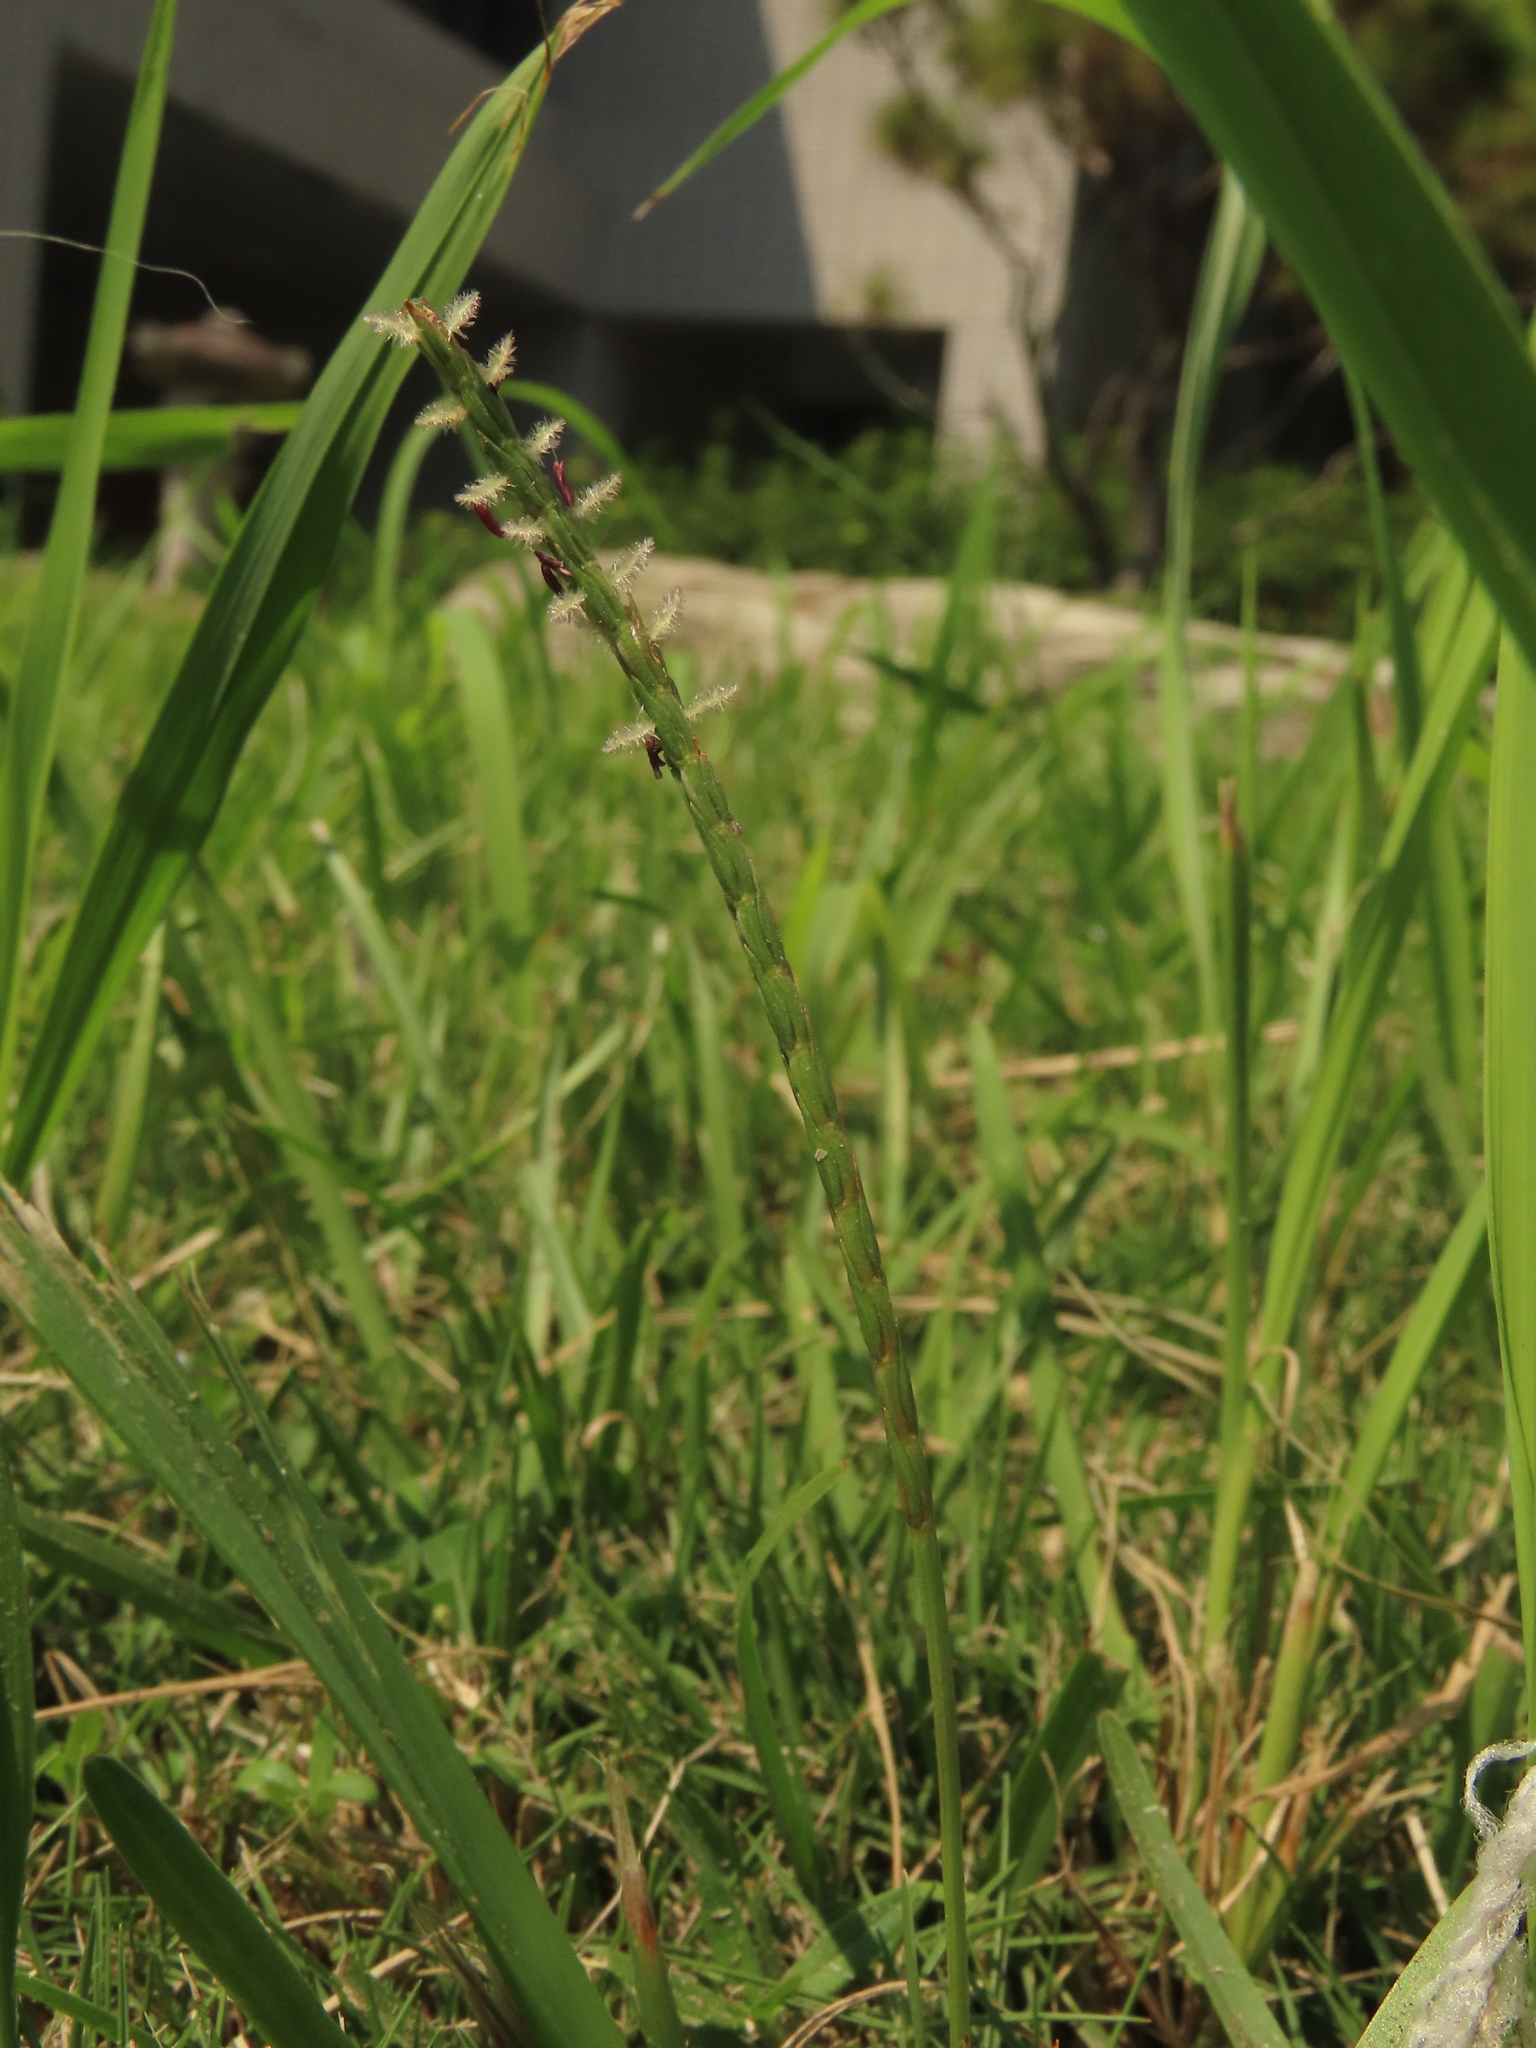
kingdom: Plantae
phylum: Tracheophyta
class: Liliopsida
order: Poales
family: Poaceae
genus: Eremochloa
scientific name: Eremochloa ophiuroides
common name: Centipede grass
